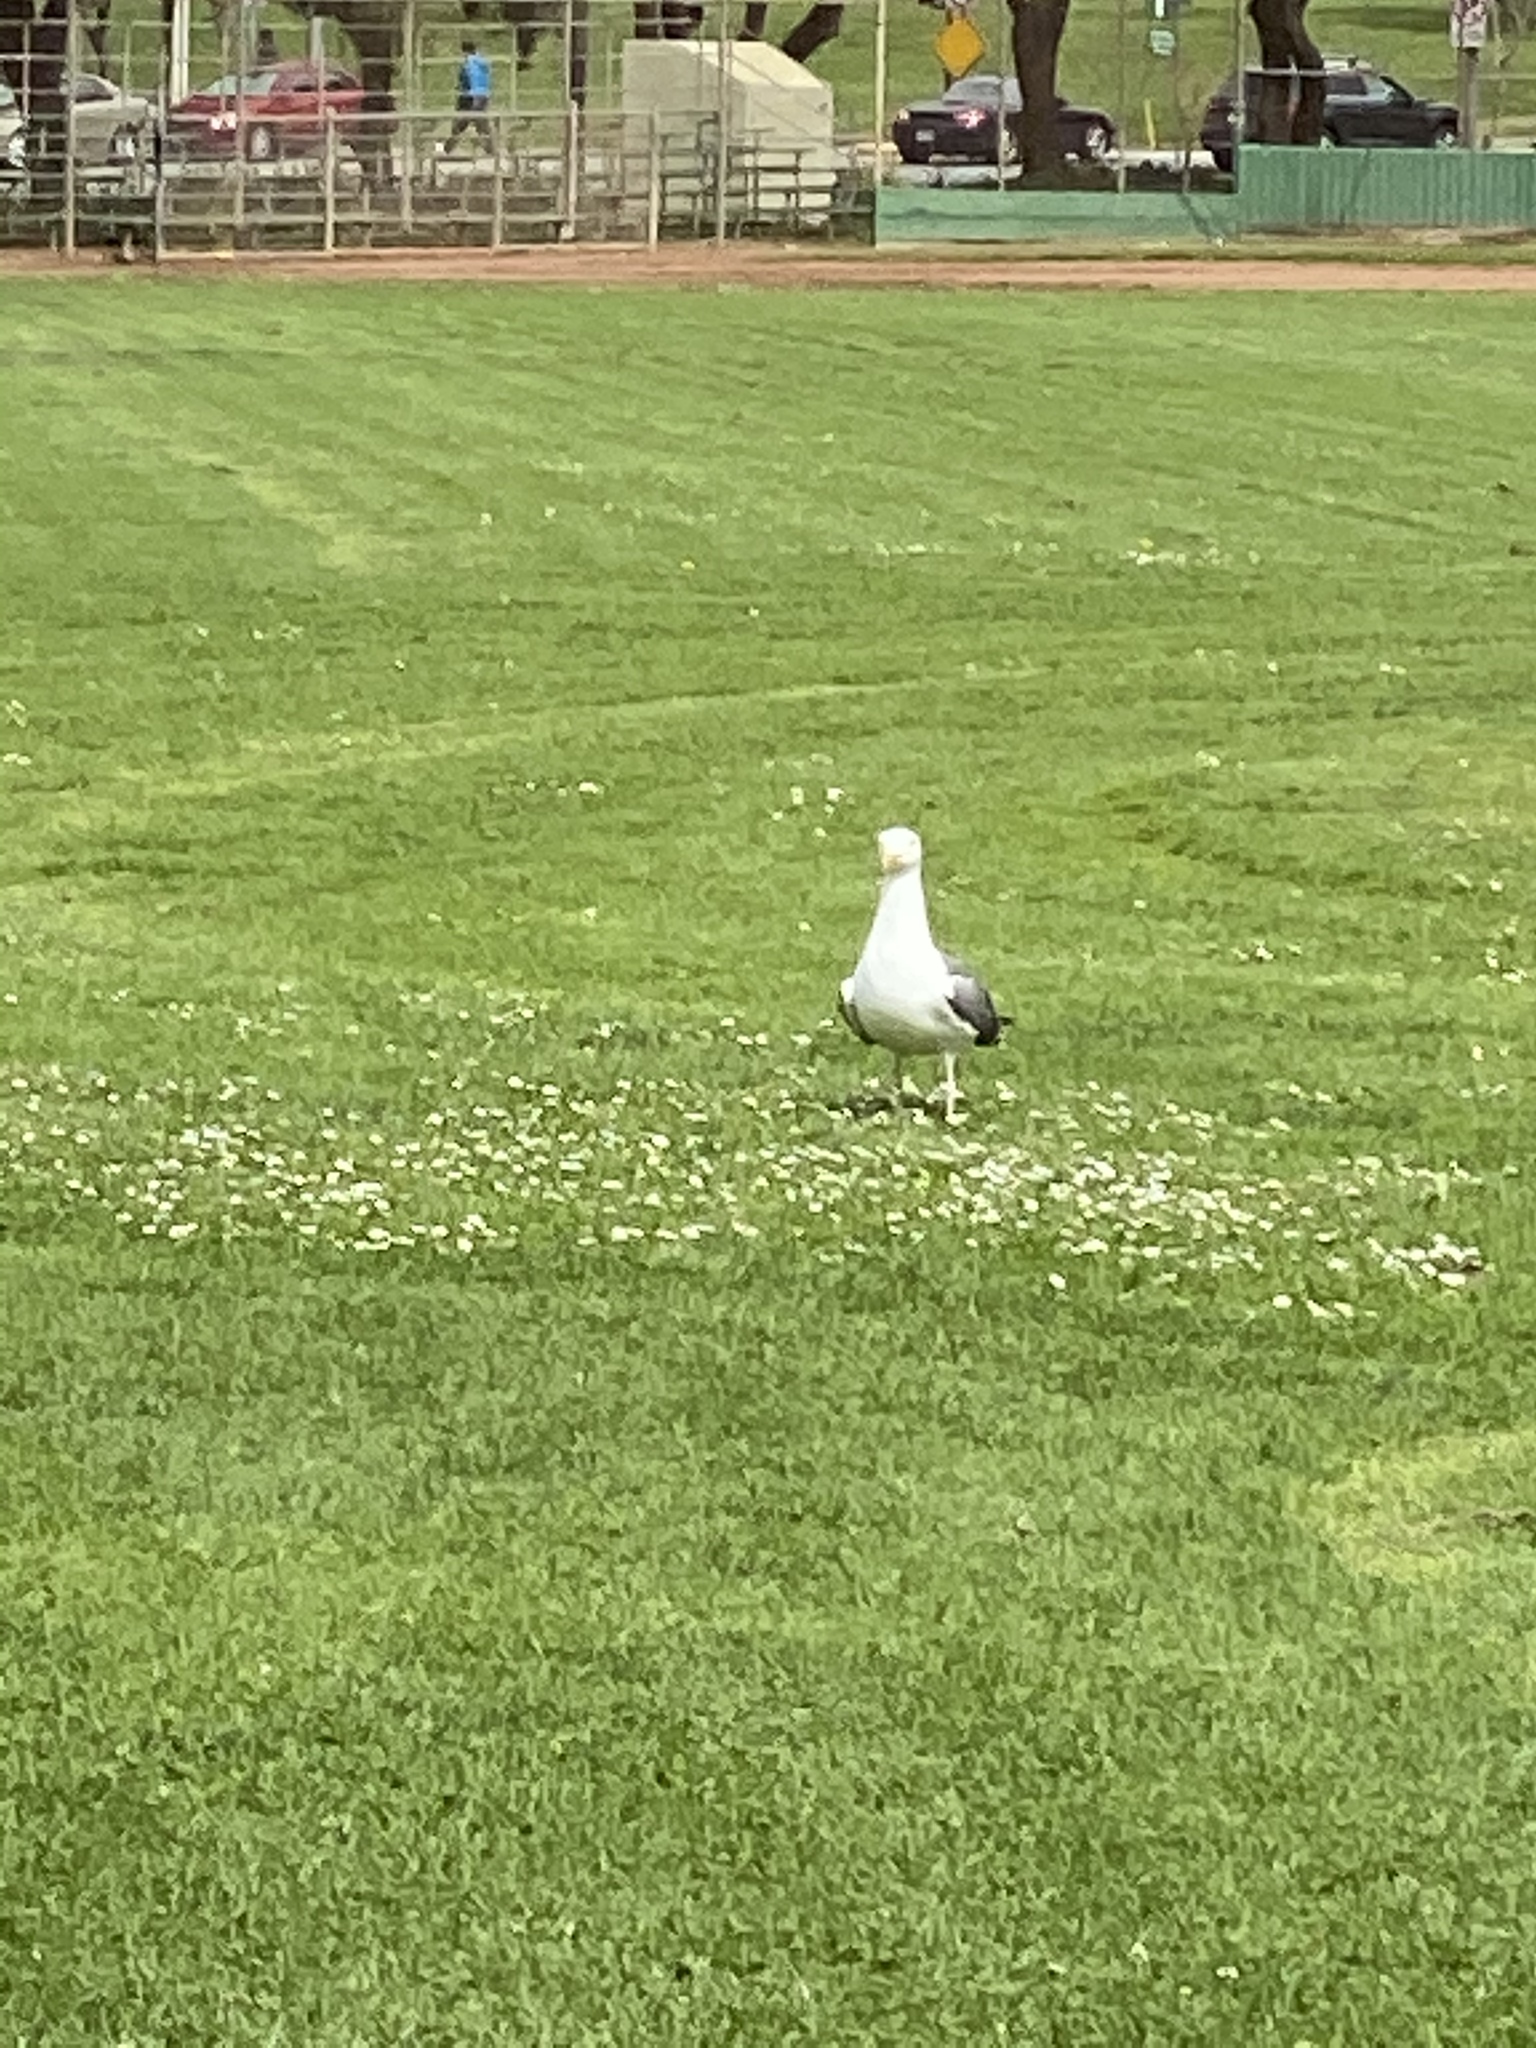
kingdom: Animalia
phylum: Chordata
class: Aves
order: Charadriiformes
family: Laridae
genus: Larus
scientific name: Larus occidentalis
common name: Western gull
